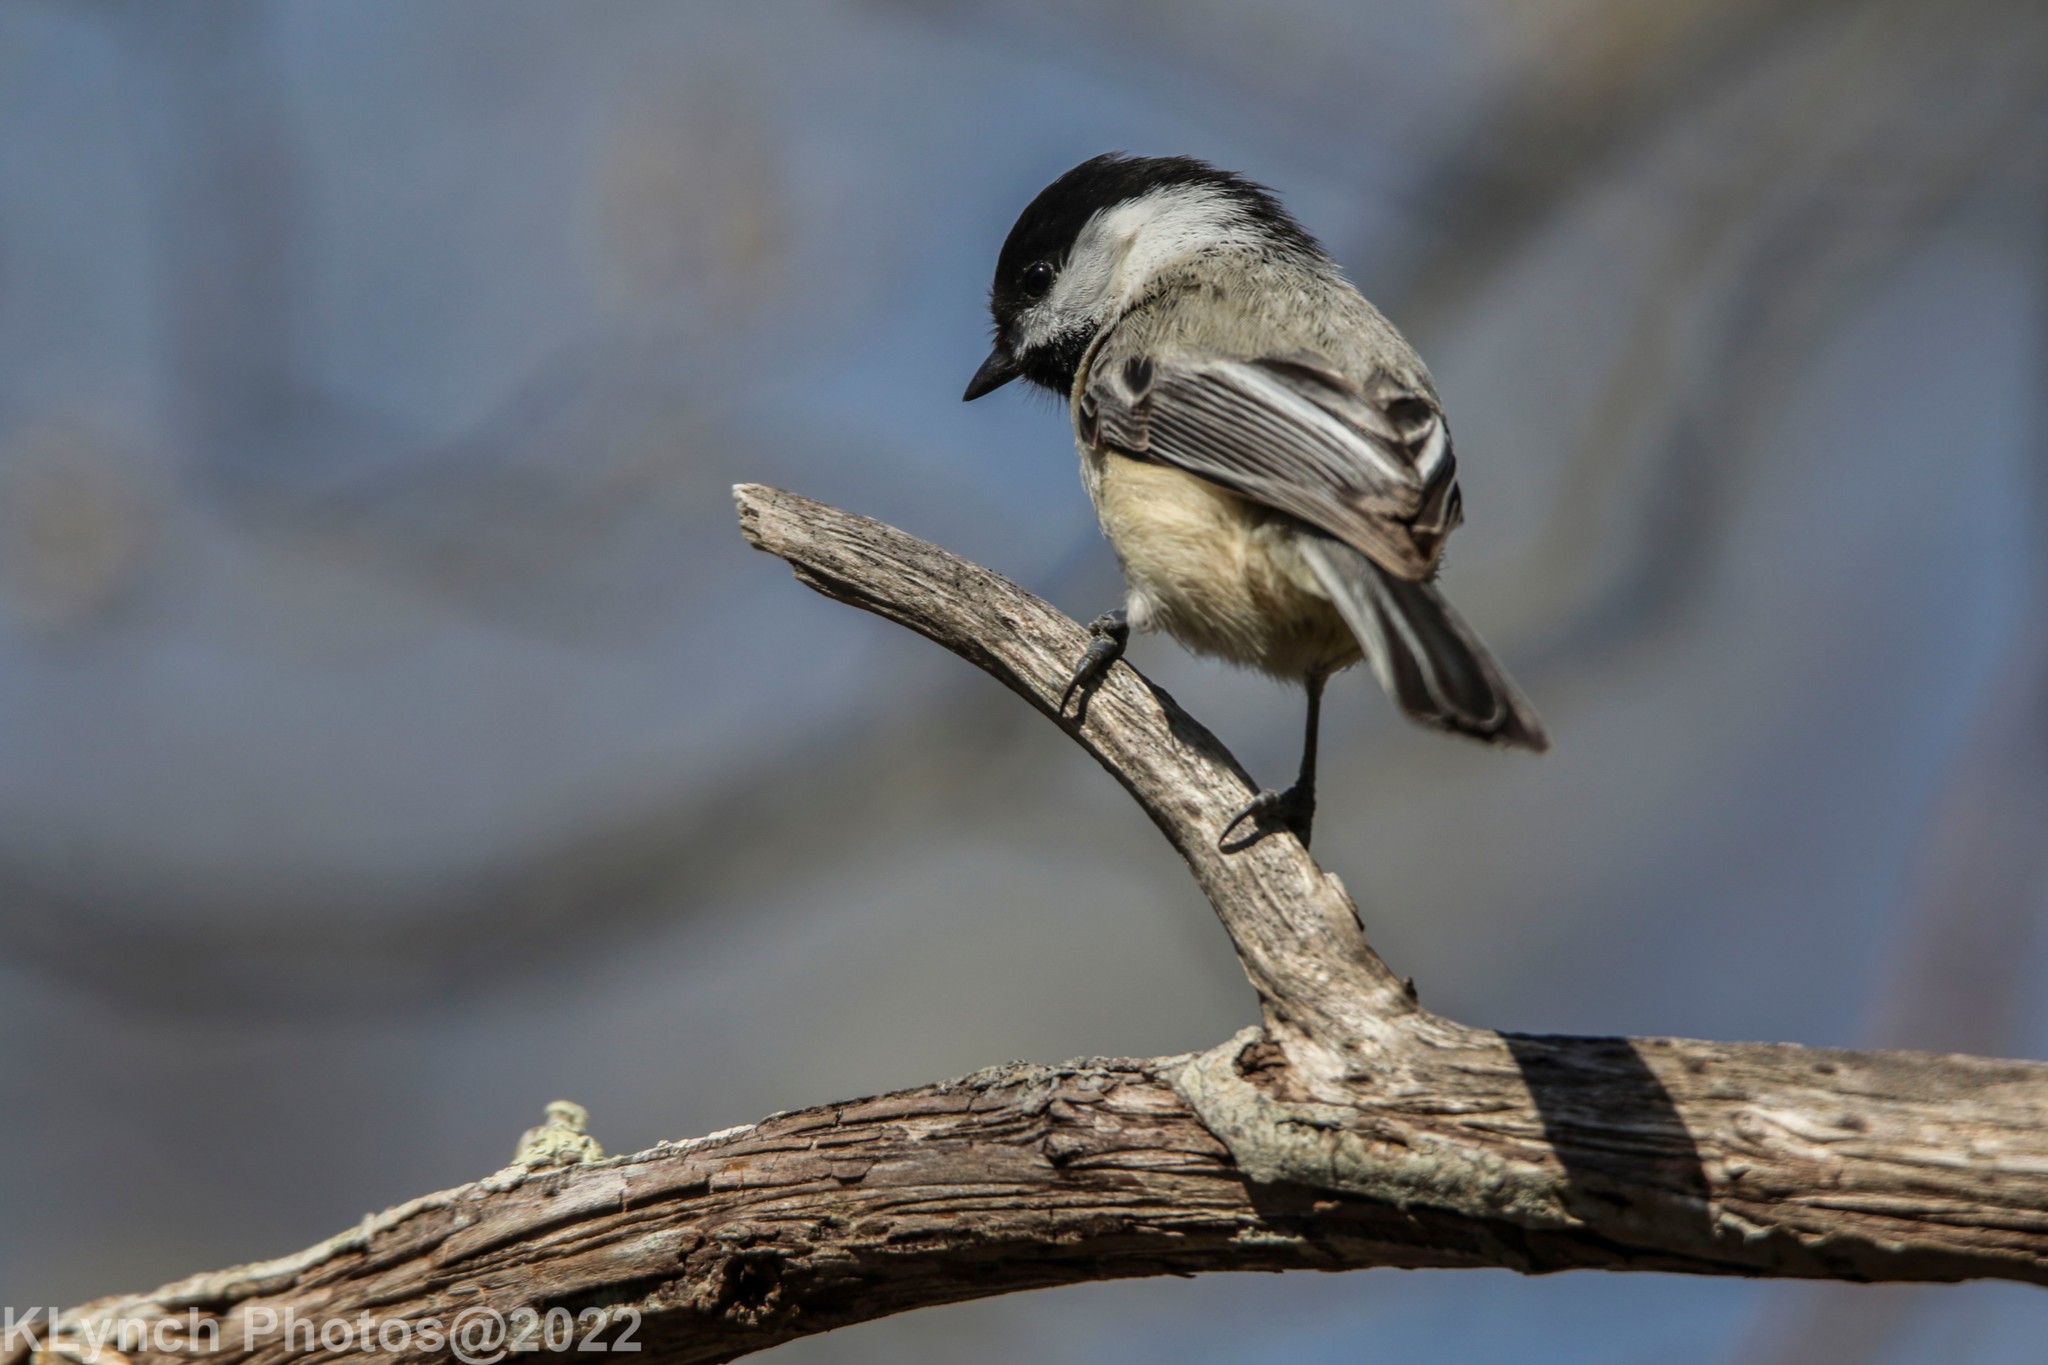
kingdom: Animalia
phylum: Chordata
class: Aves
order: Passeriformes
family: Paridae
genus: Poecile
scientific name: Poecile atricapillus
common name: Black-capped chickadee
